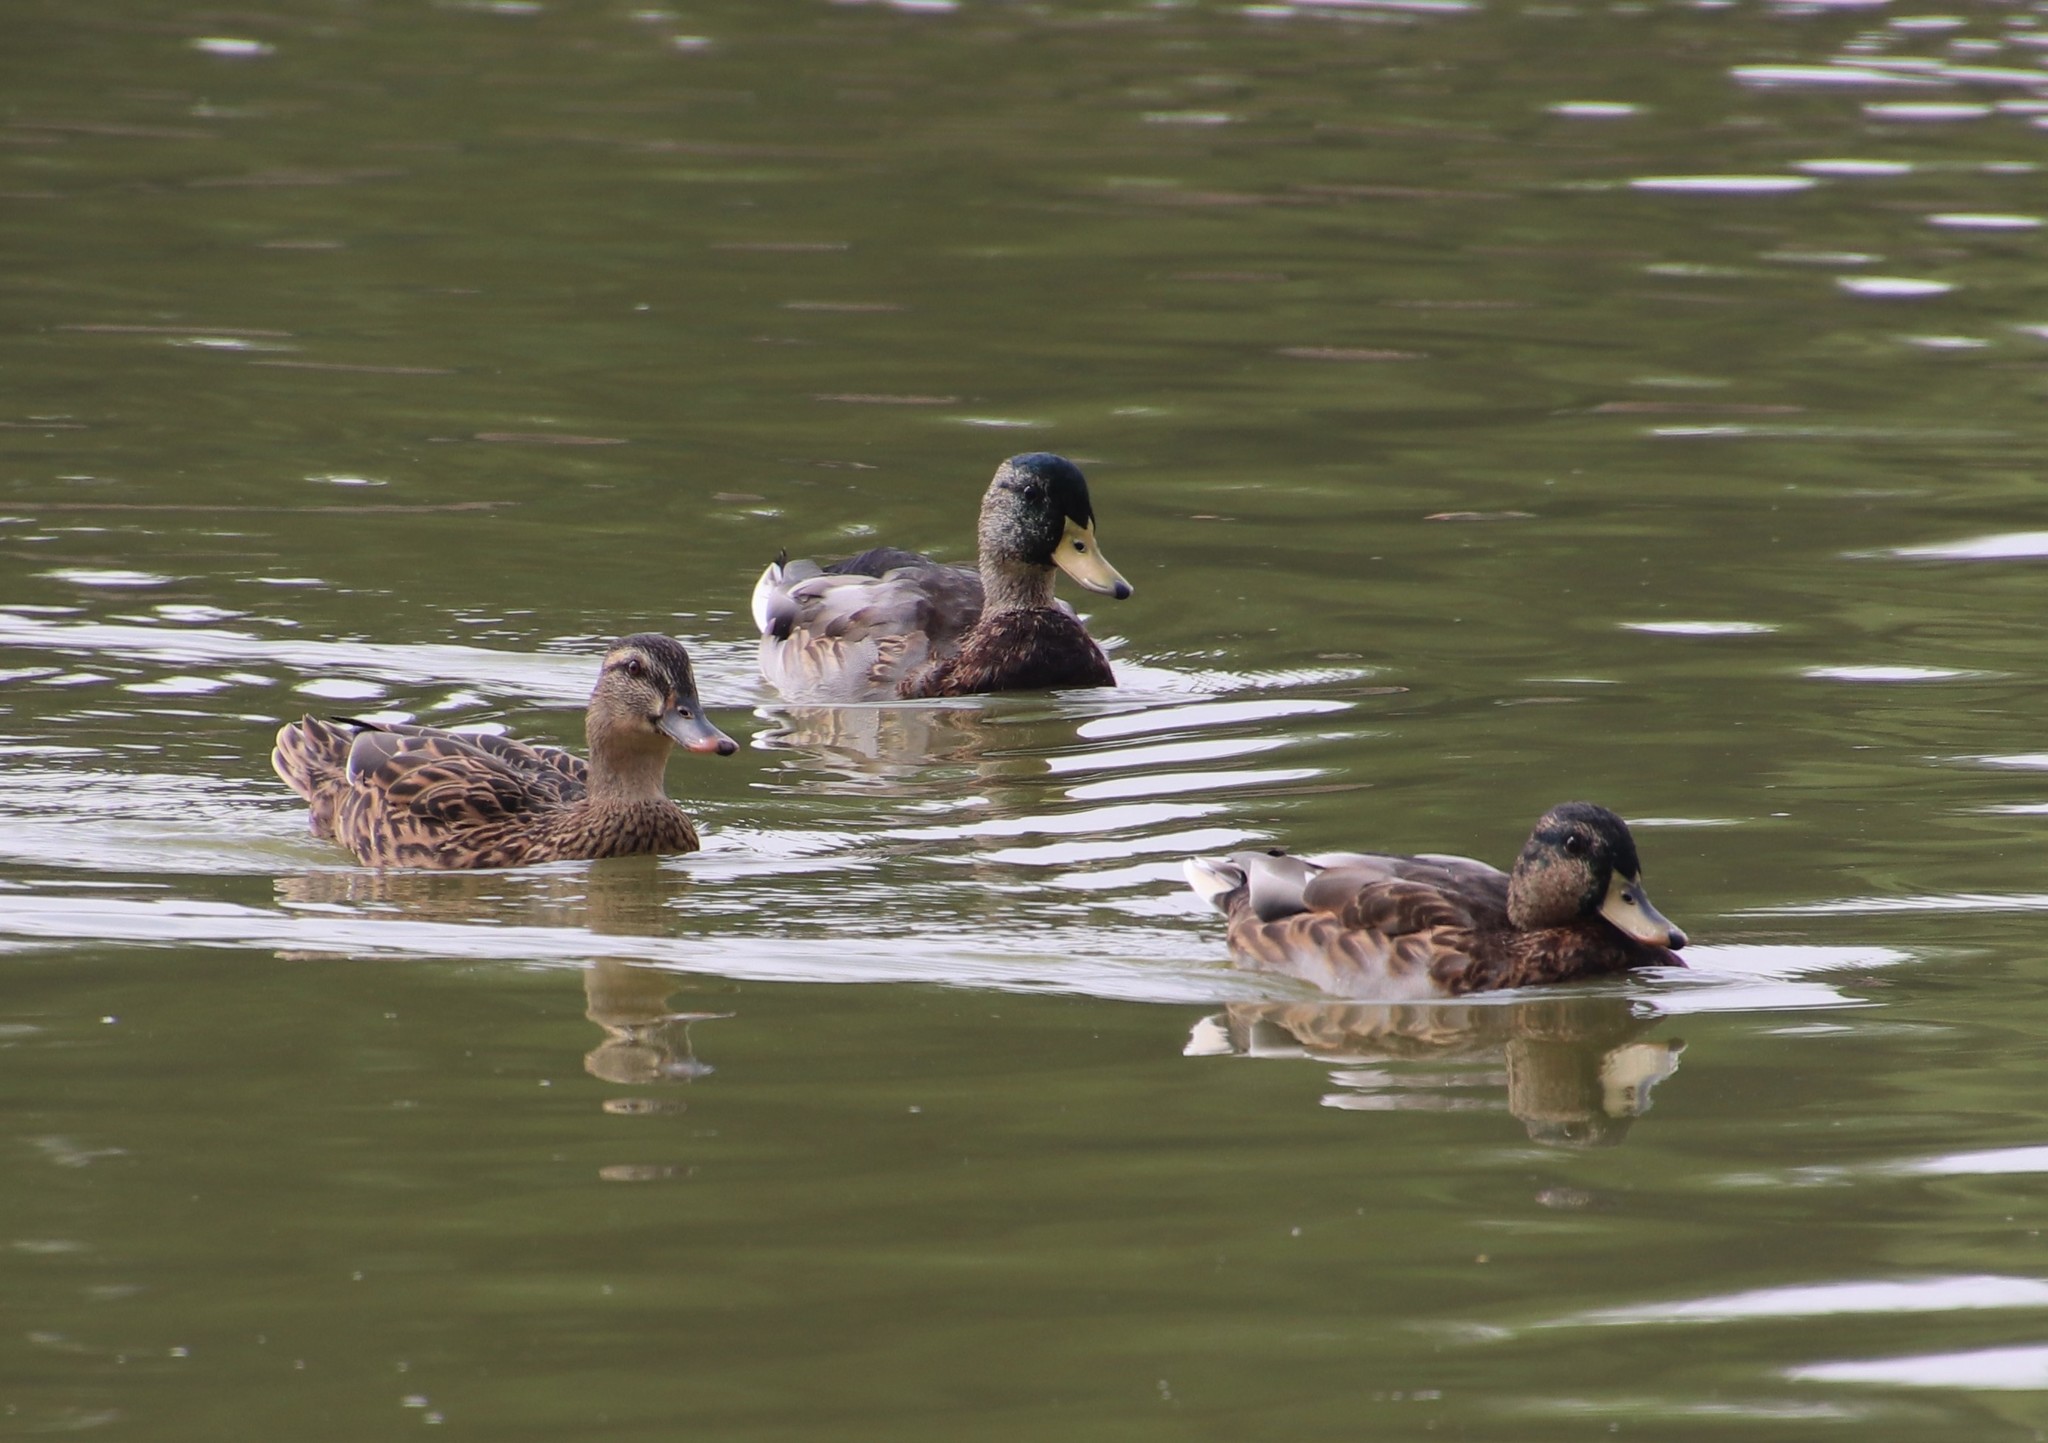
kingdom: Animalia
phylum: Chordata
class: Aves
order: Anseriformes
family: Anatidae
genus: Anas
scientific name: Anas platyrhynchos
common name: Mallard
